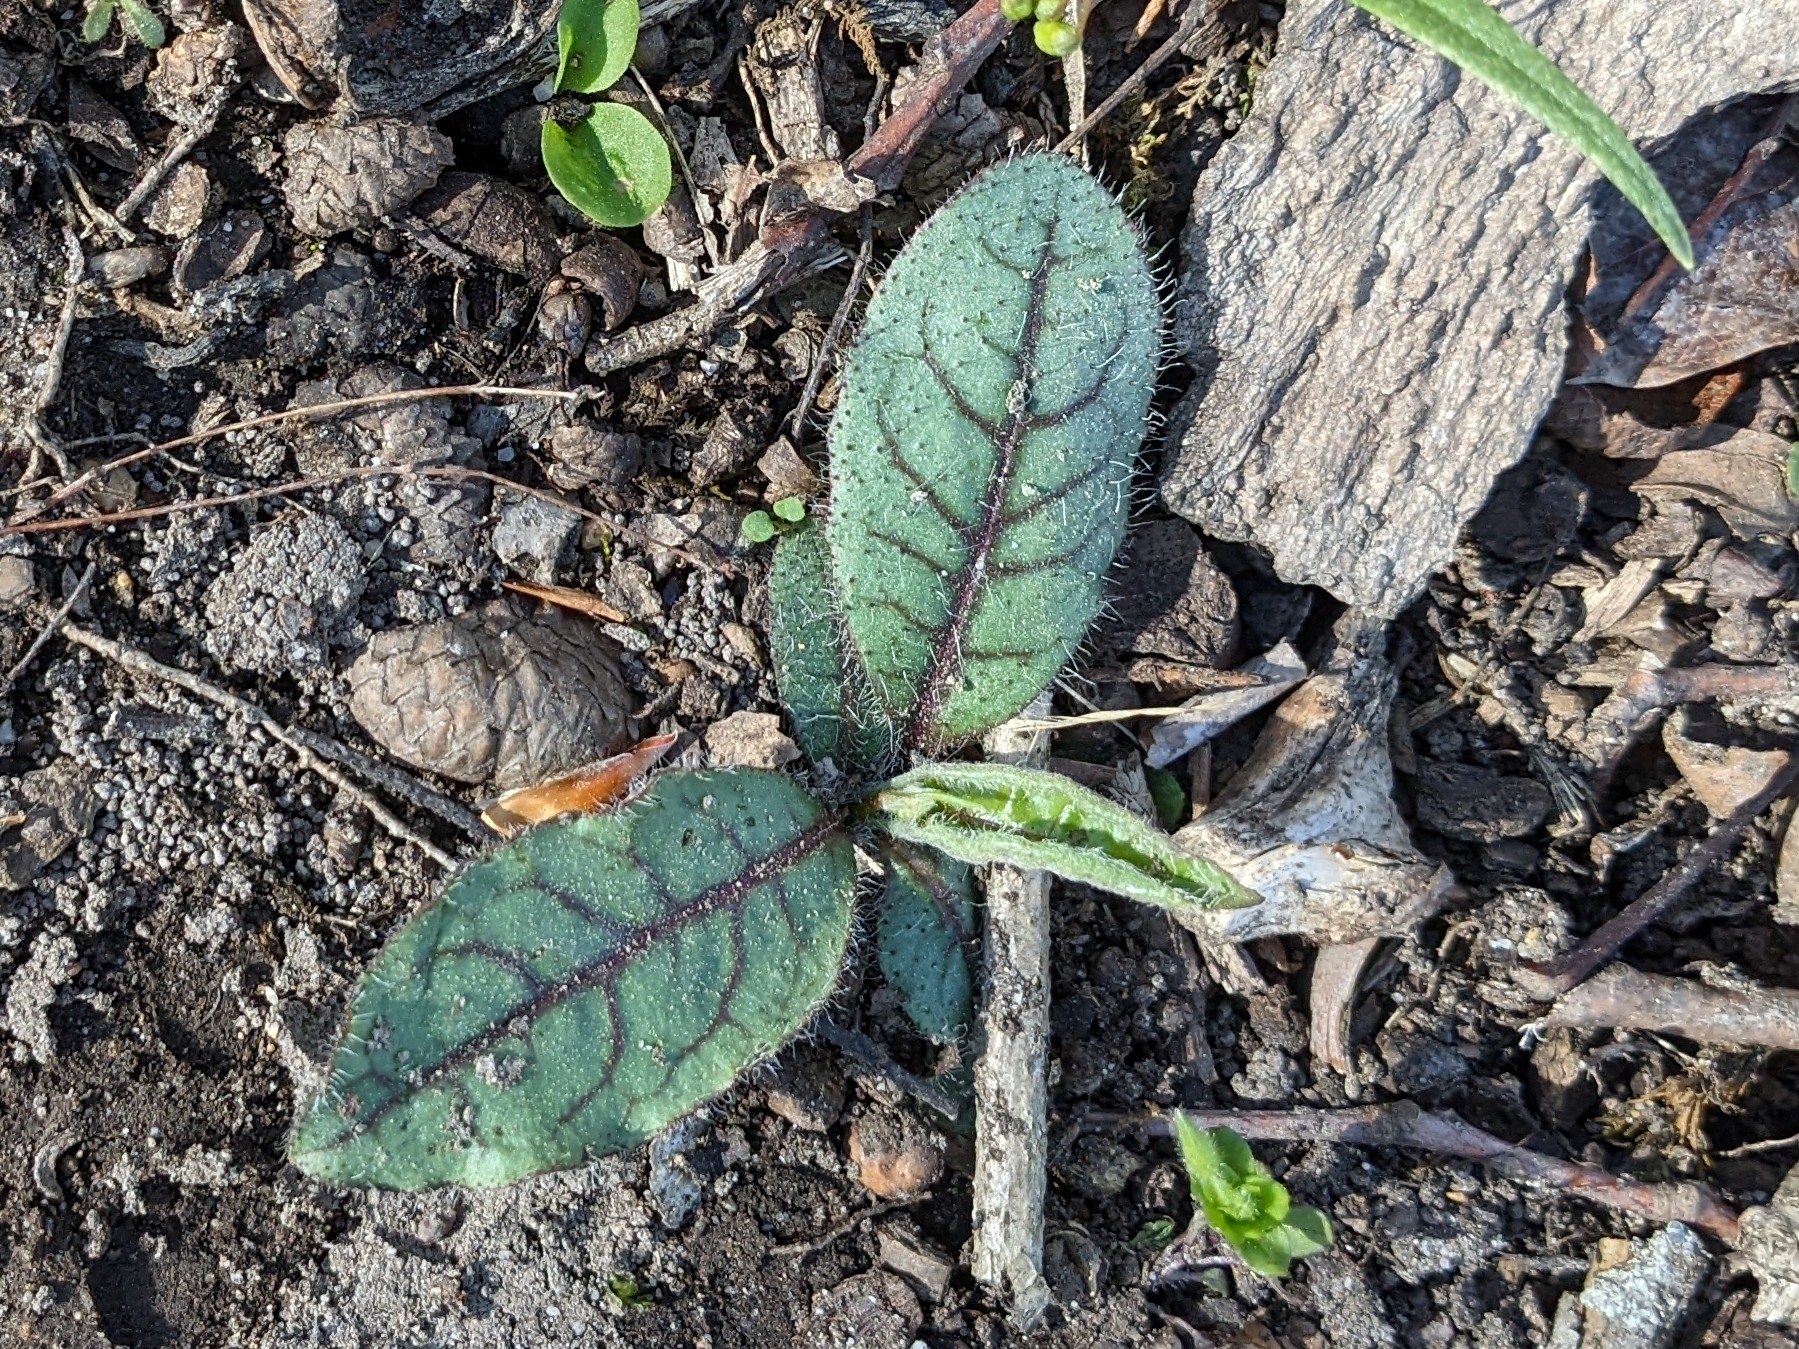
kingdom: Plantae
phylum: Tracheophyta
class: Magnoliopsida
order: Asterales
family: Asteraceae
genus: Hieracium
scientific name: Hieracium venosum
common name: Rattlesnake hawkweed
